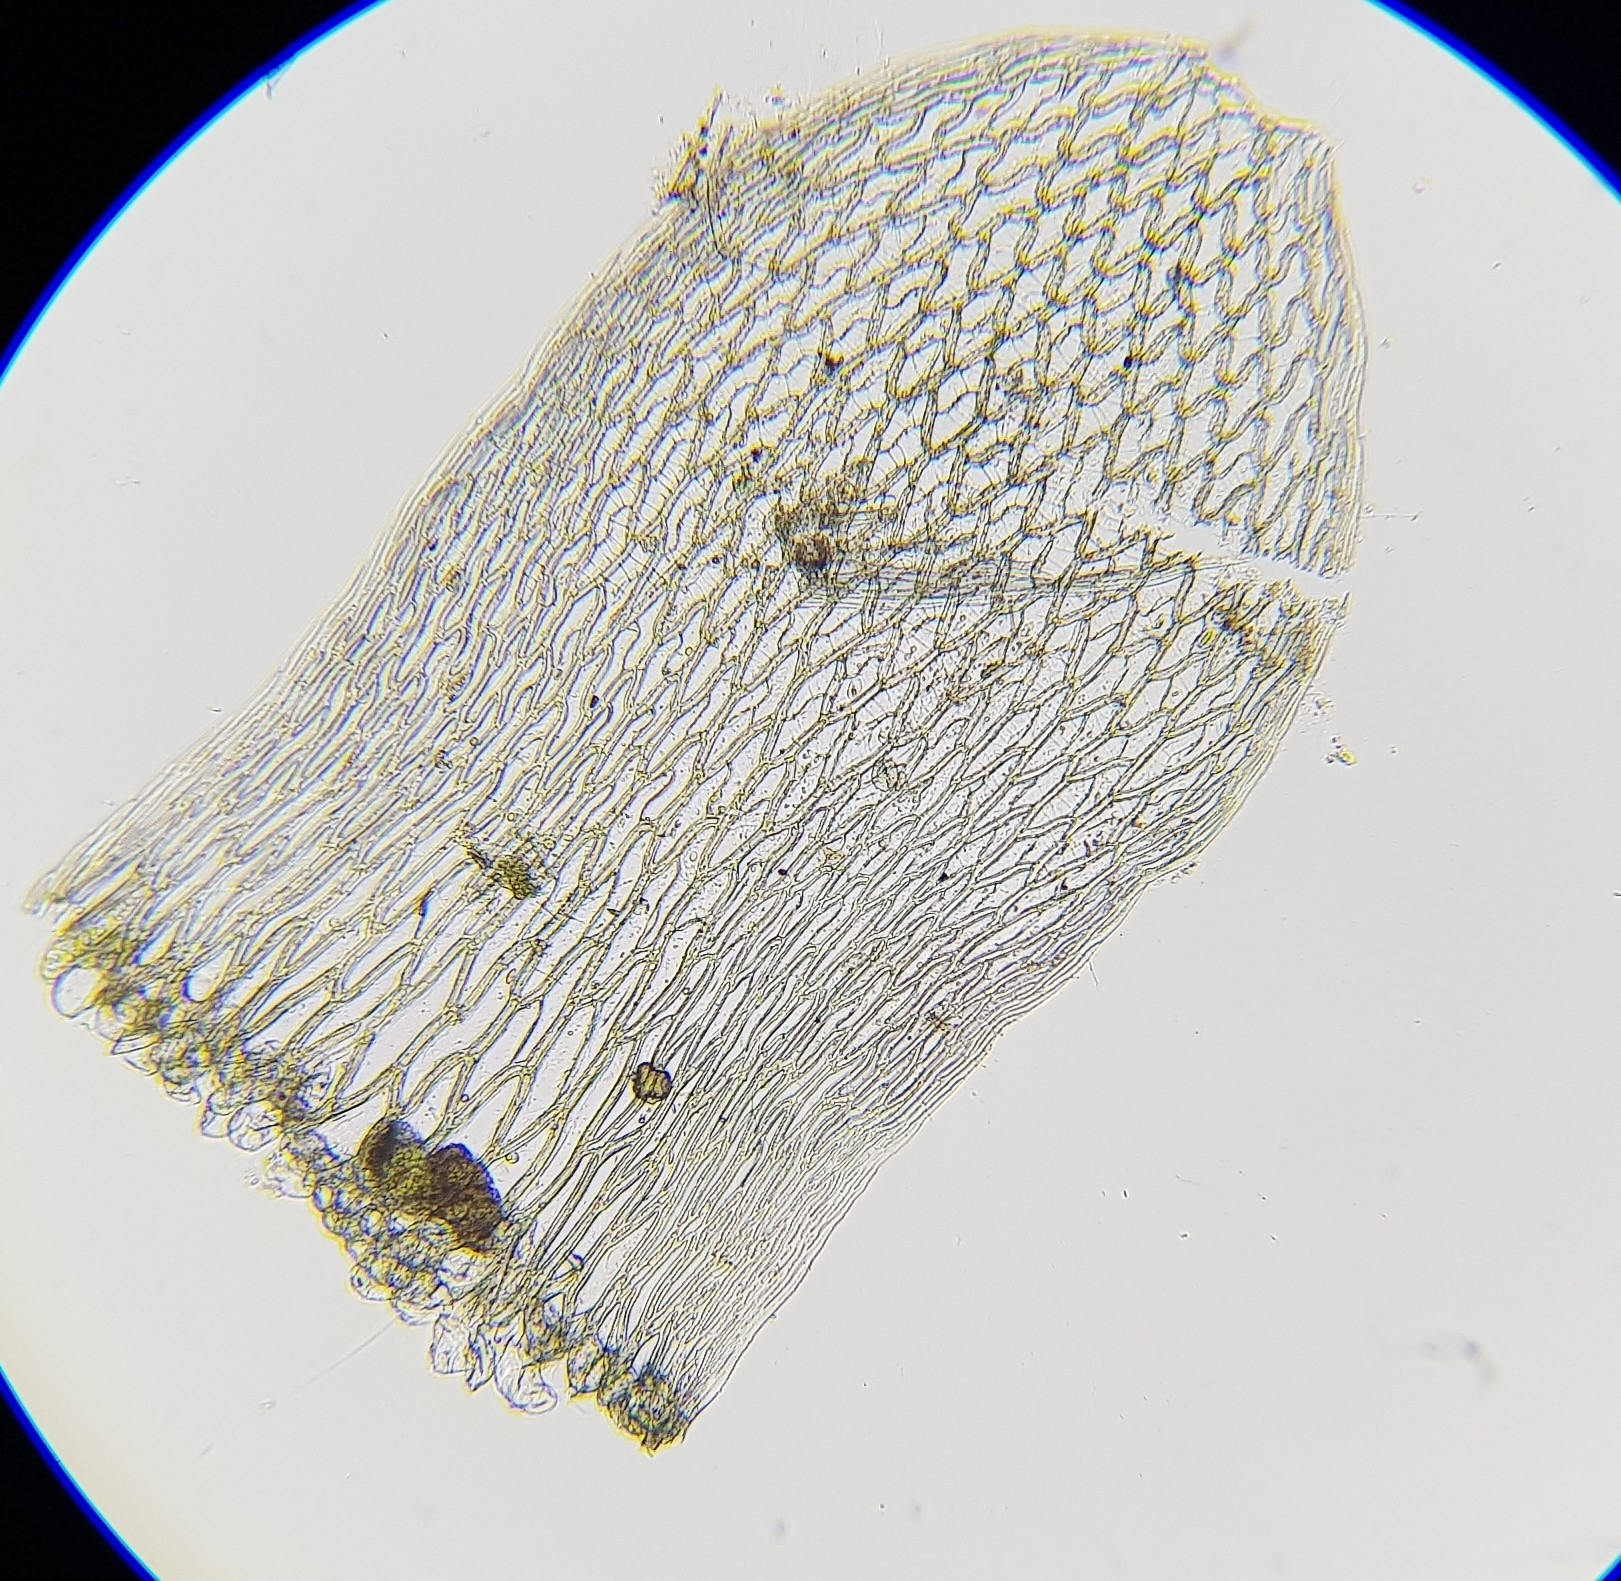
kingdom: Plantae
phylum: Bryophyta
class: Sphagnopsida
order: Sphagnales
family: Sphagnaceae
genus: Sphagnum
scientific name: Sphagnum russowii
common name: Russow's peat moss
